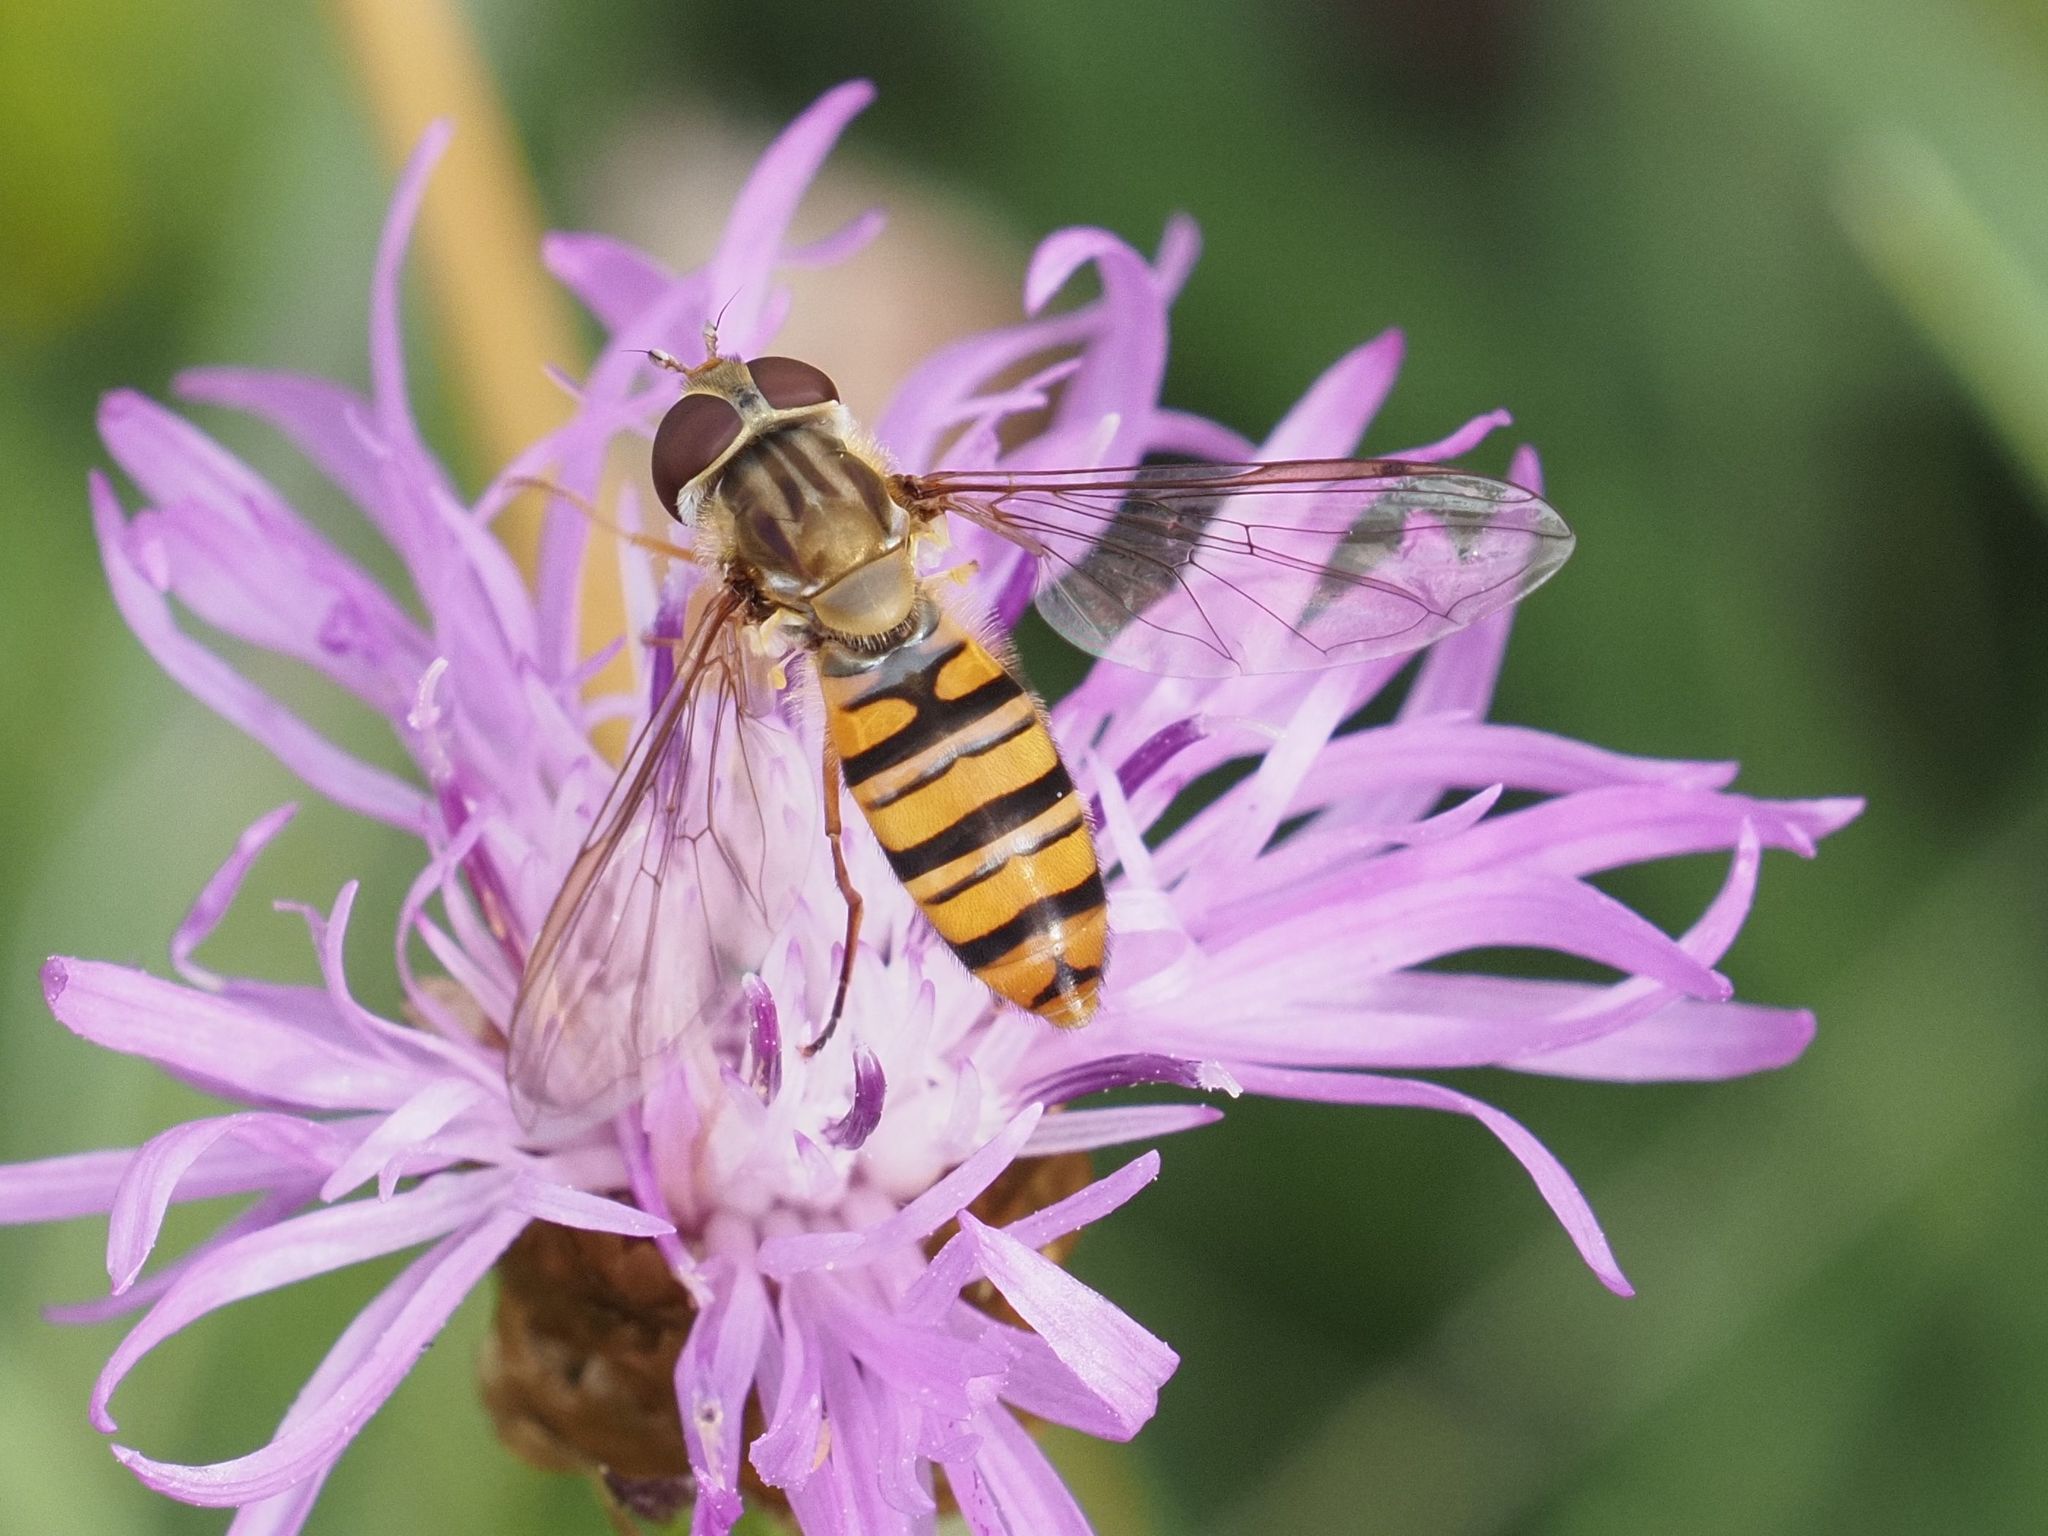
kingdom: Animalia
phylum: Arthropoda
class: Insecta
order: Diptera
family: Syrphidae
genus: Episyrphus
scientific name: Episyrphus balteatus
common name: Marmalade hoverfly
